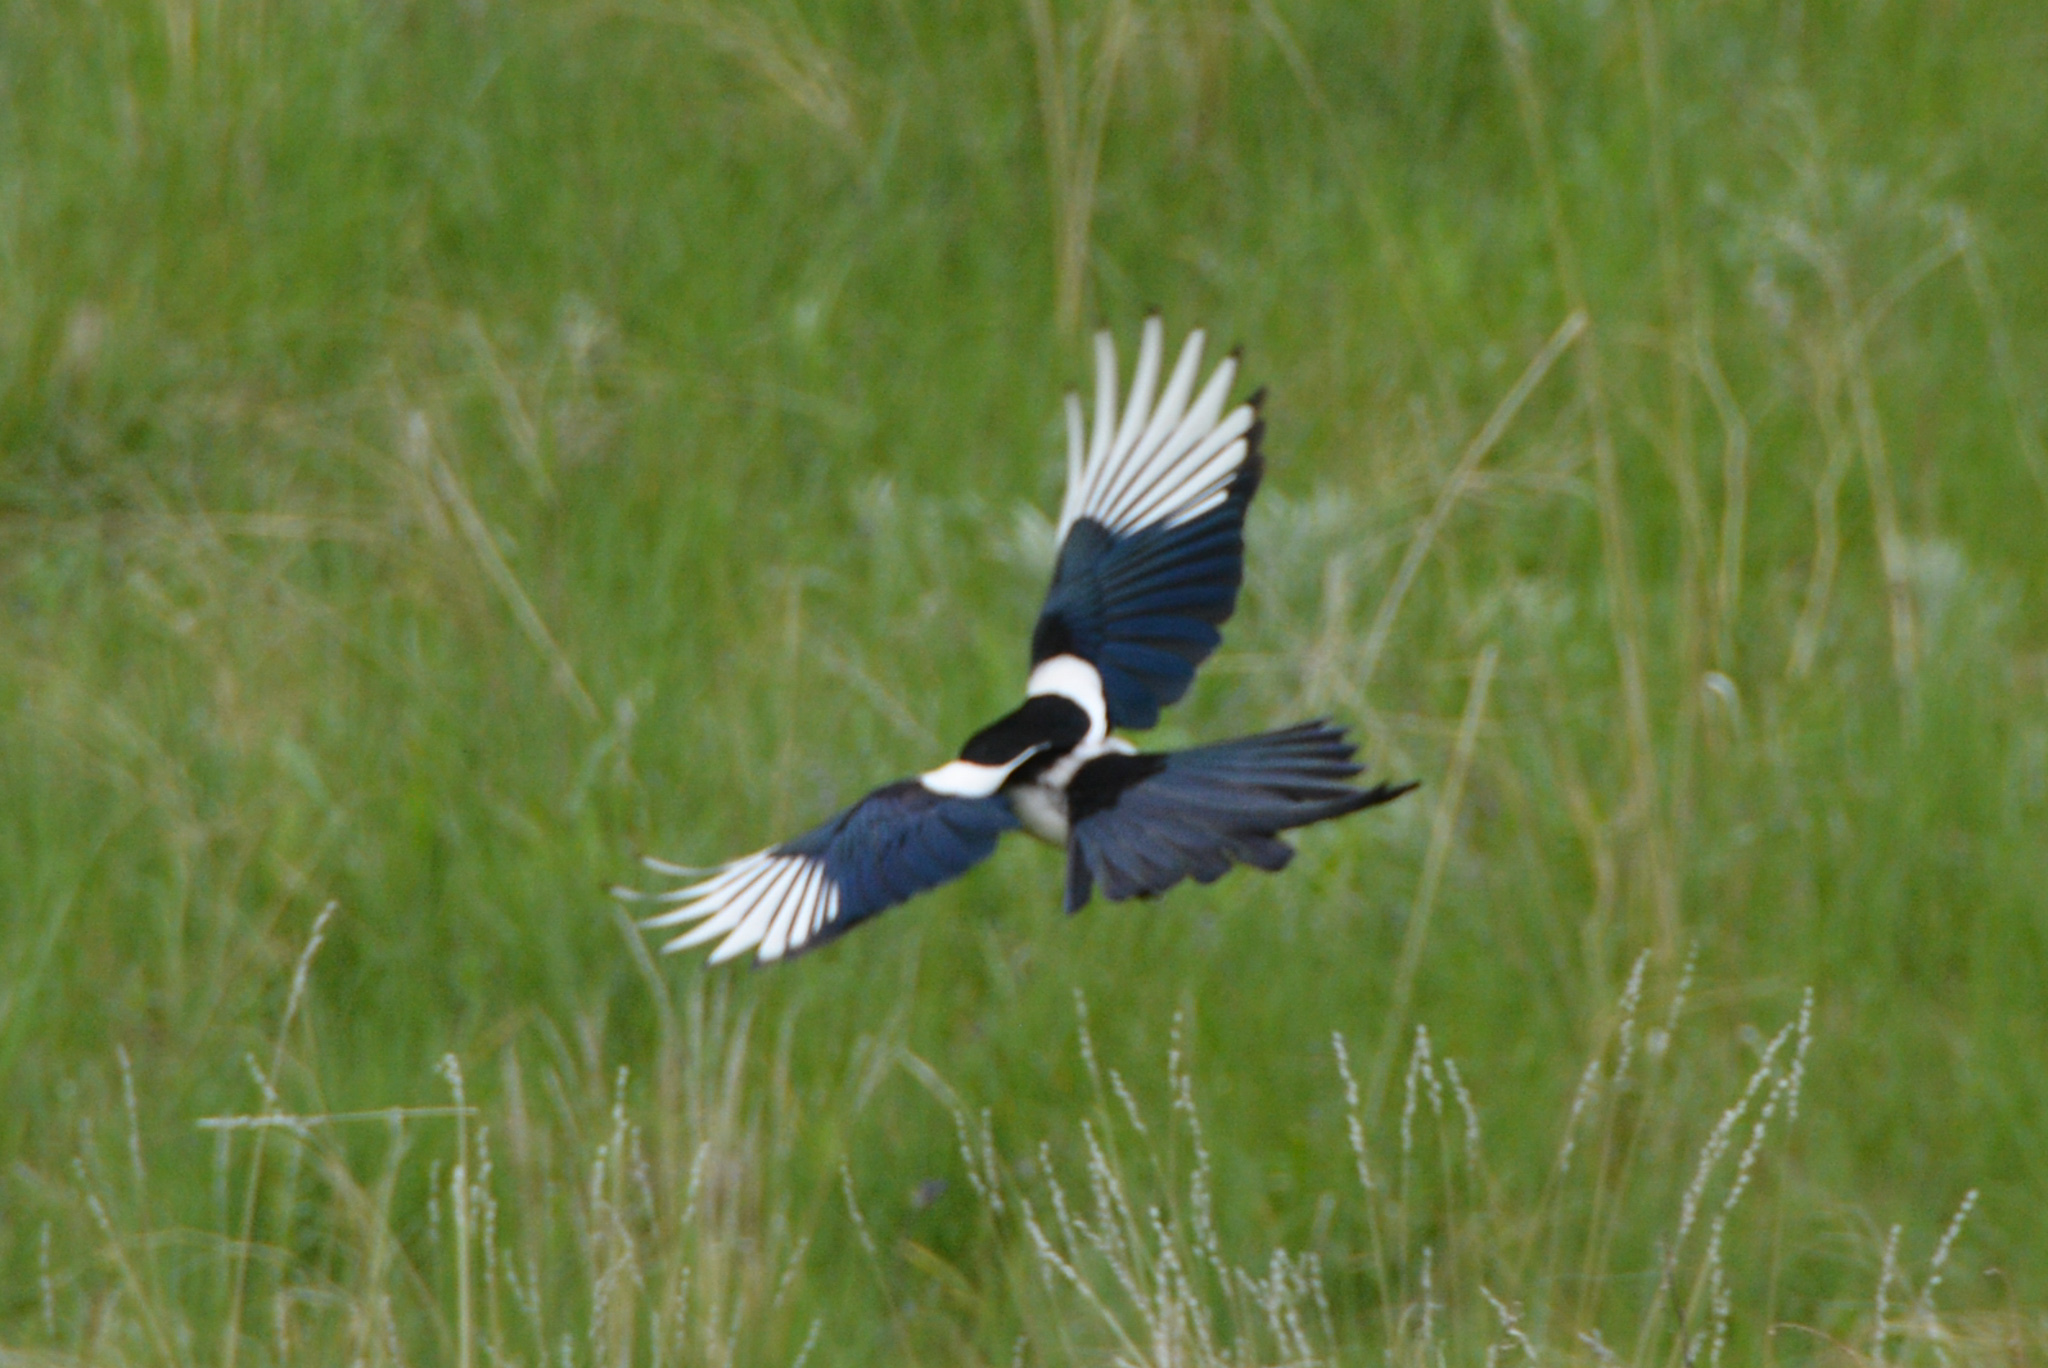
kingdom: Animalia
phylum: Chordata
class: Aves
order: Passeriformes
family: Corvidae
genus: Pica
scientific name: Pica hudsonia
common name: Black-billed magpie
